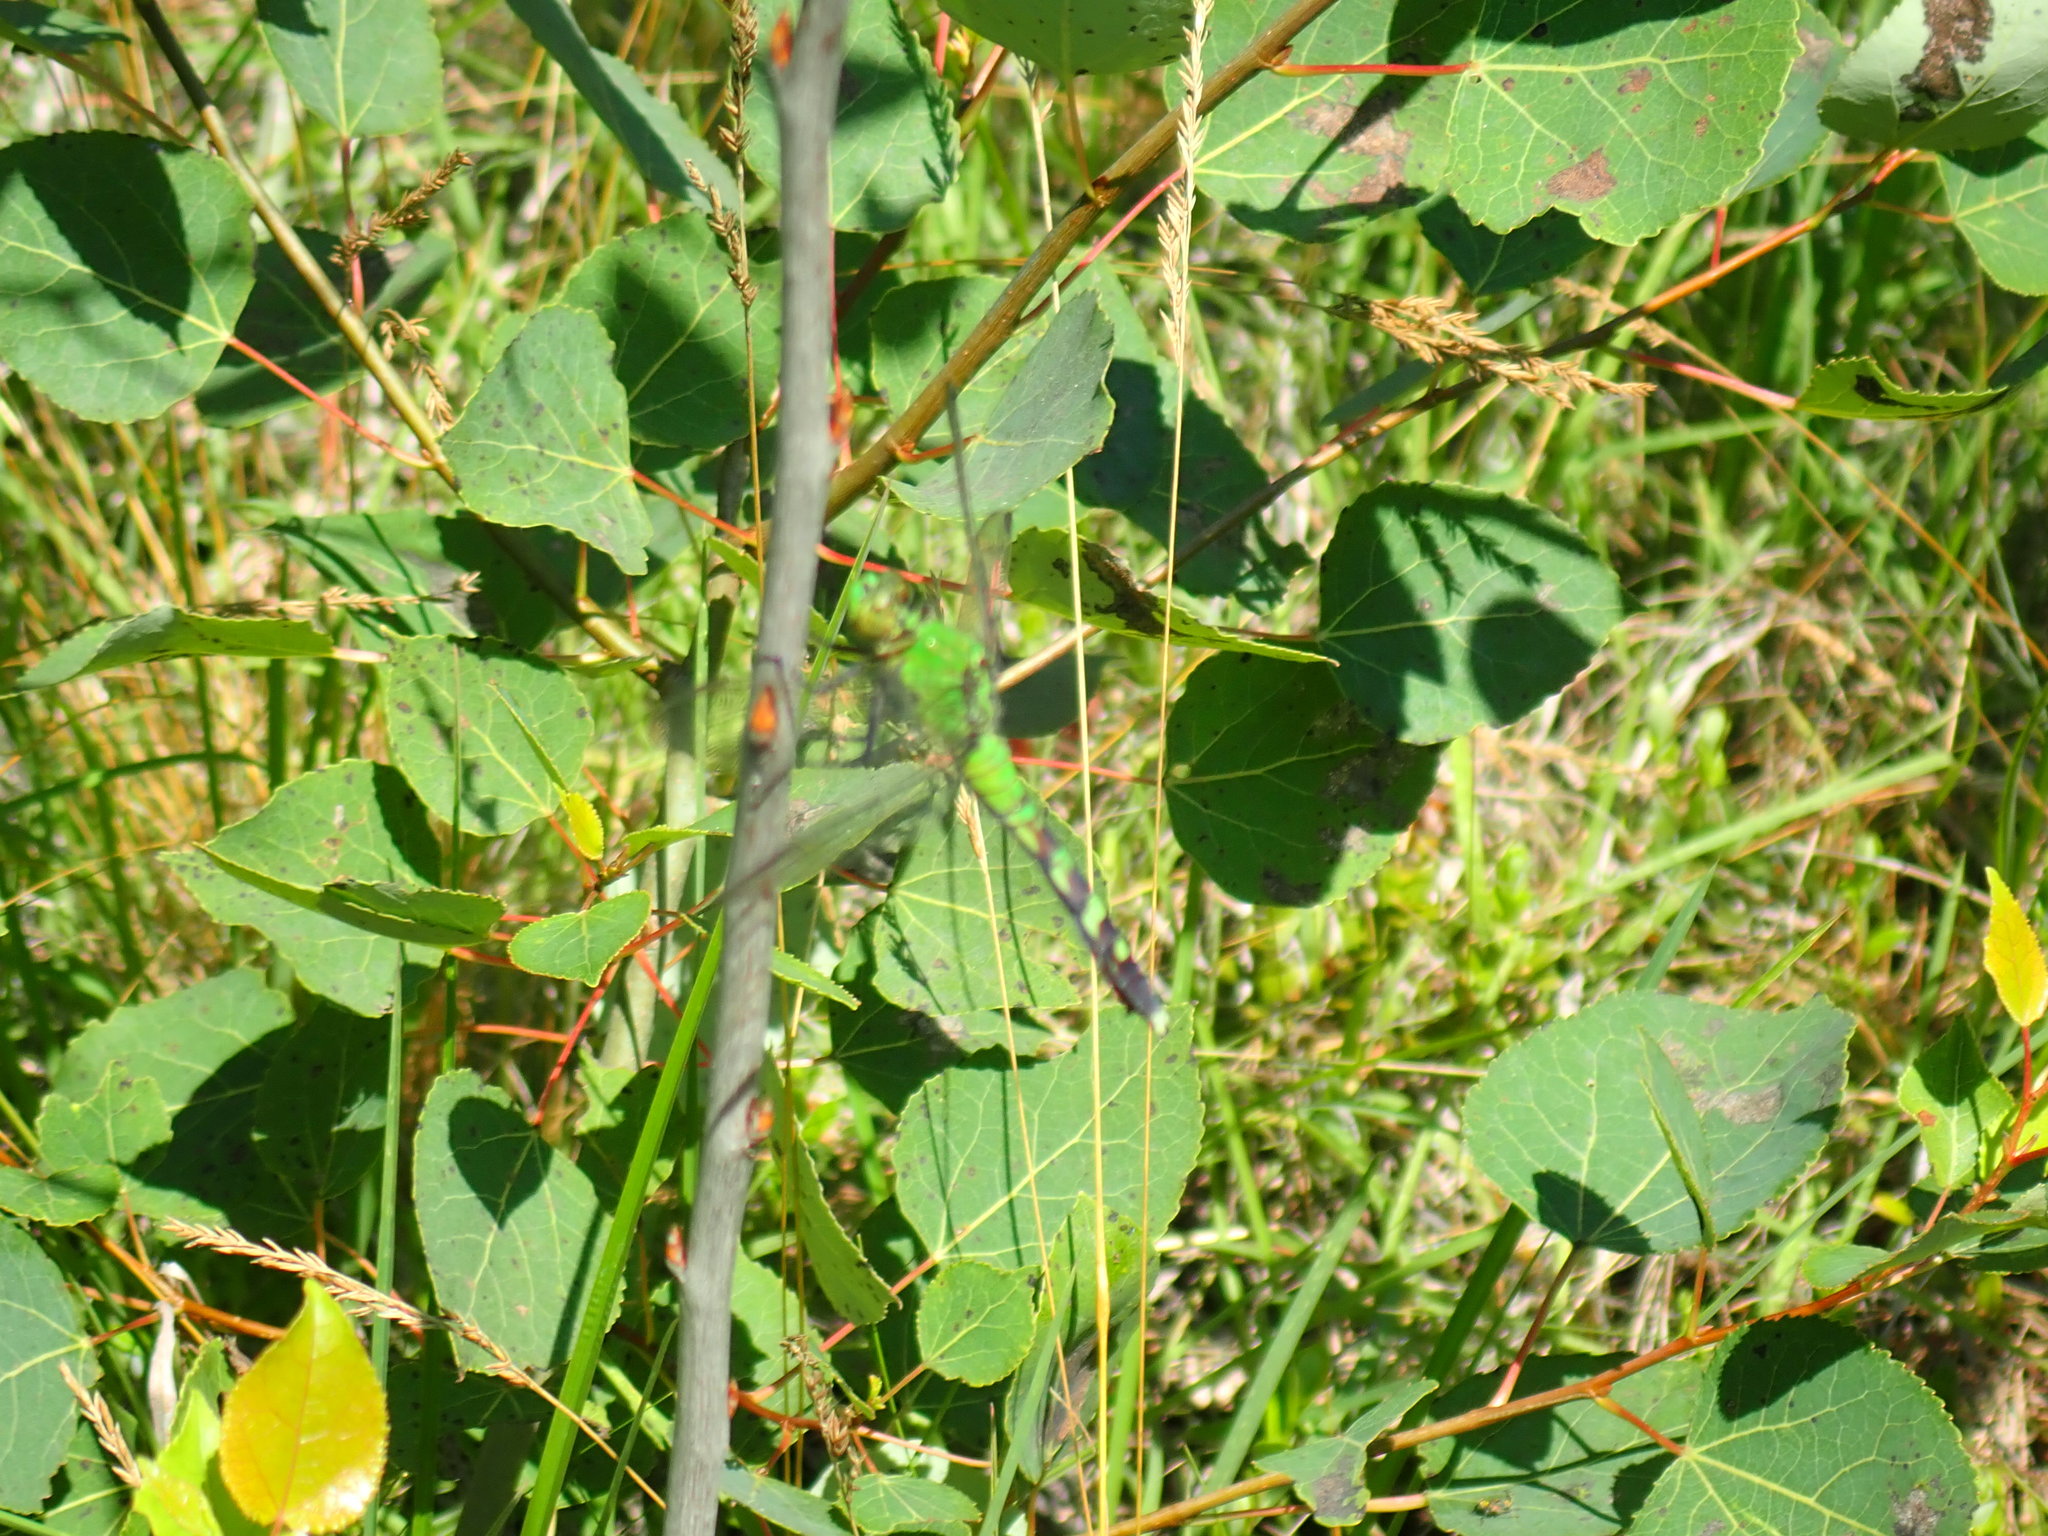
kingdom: Animalia
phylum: Arthropoda
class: Insecta
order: Odonata
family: Libellulidae
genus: Erythemis
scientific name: Erythemis simplicicollis
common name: Eastern pondhawk
